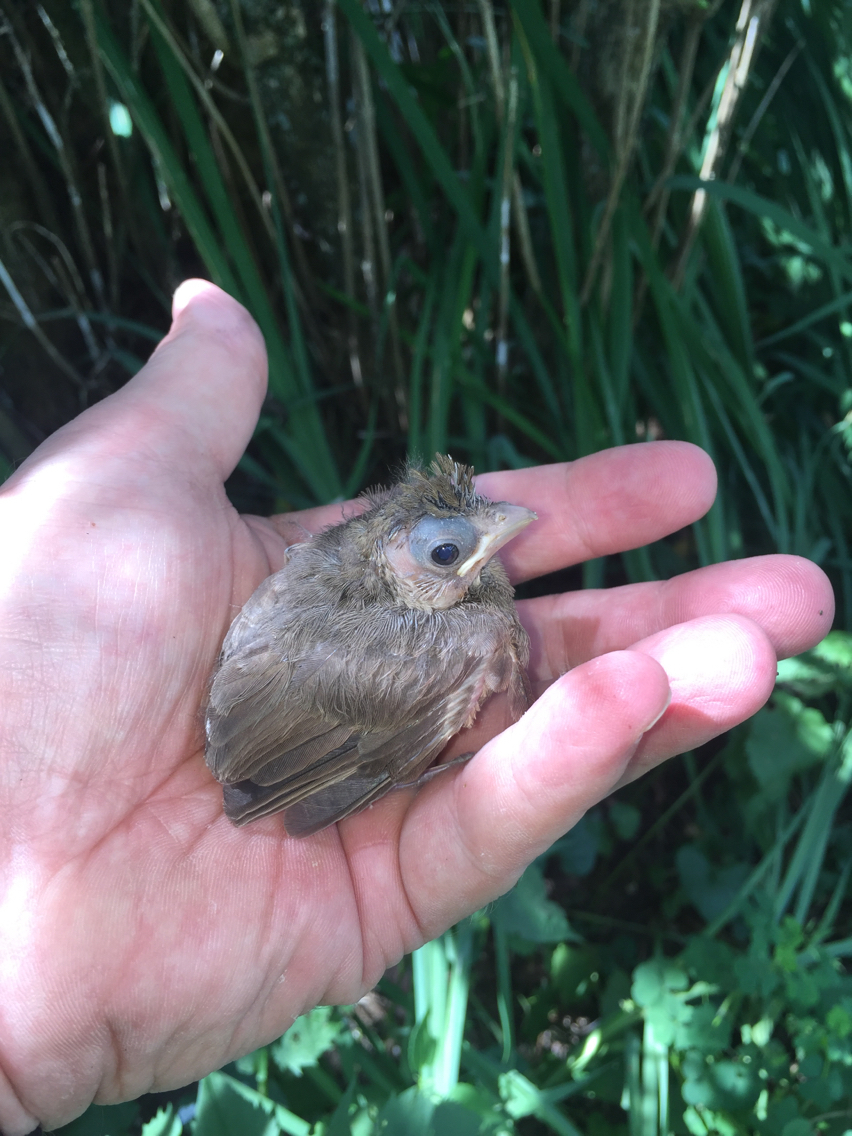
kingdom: Animalia
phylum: Chordata
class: Aves
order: Passeriformes
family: Cardinalidae
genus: Cardinalis
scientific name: Cardinalis cardinalis
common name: Northern cardinal
